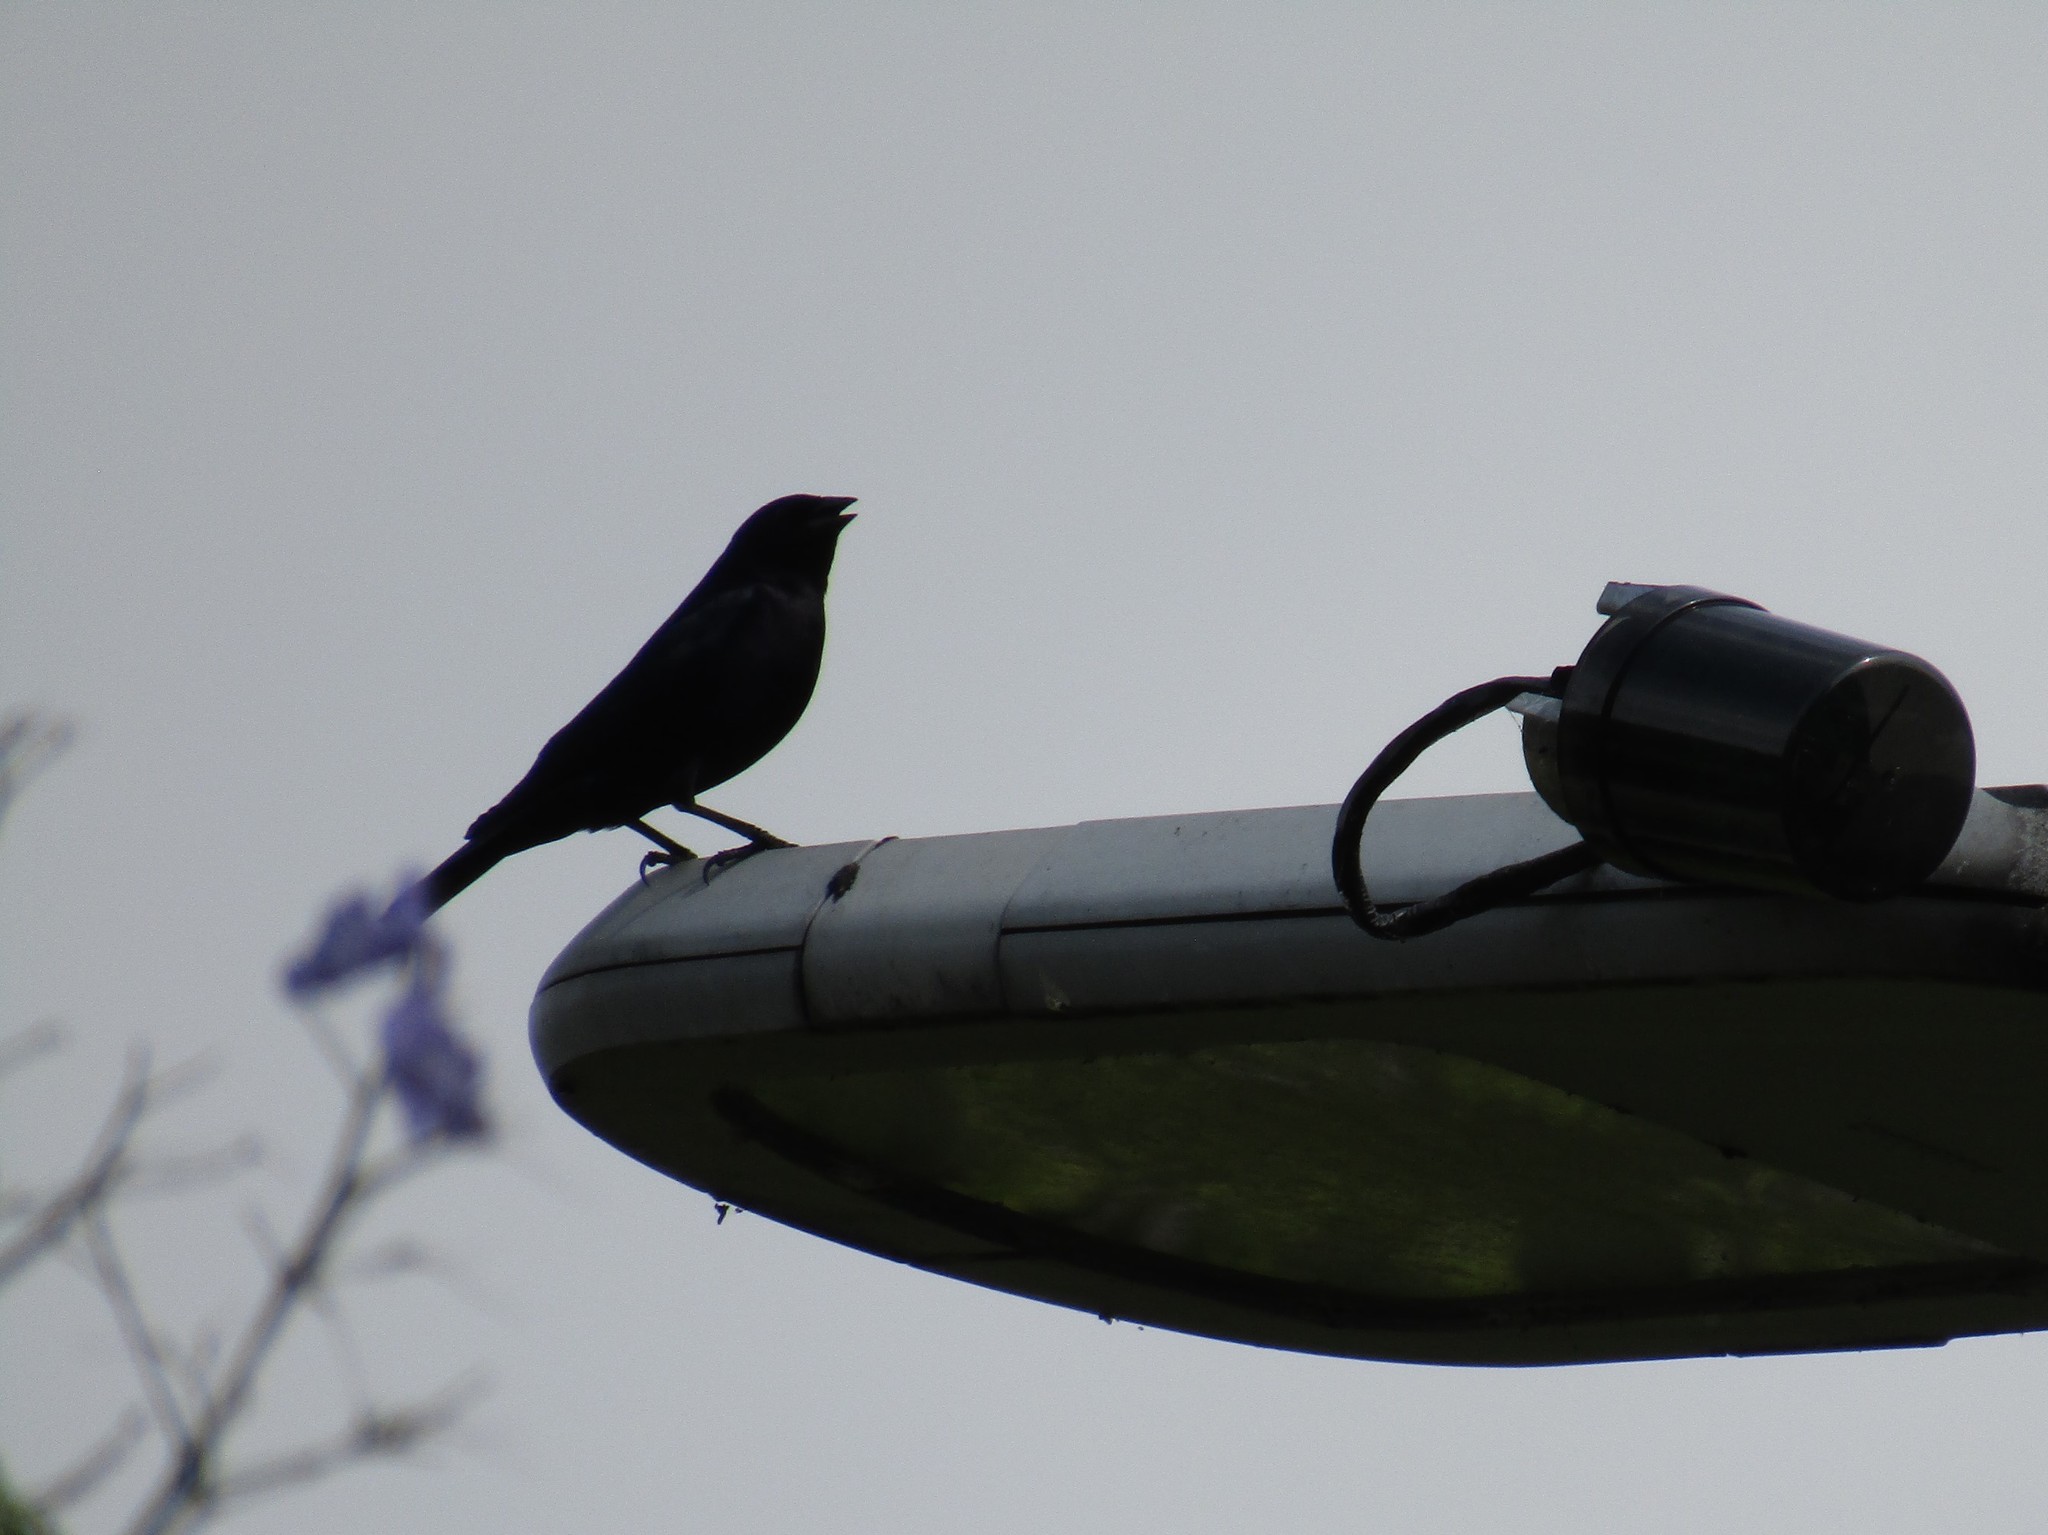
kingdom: Animalia
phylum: Chordata
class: Aves
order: Passeriformes
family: Icteridae
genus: Molothrus
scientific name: Molothrus bonariensis
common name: Shiny cowbird
